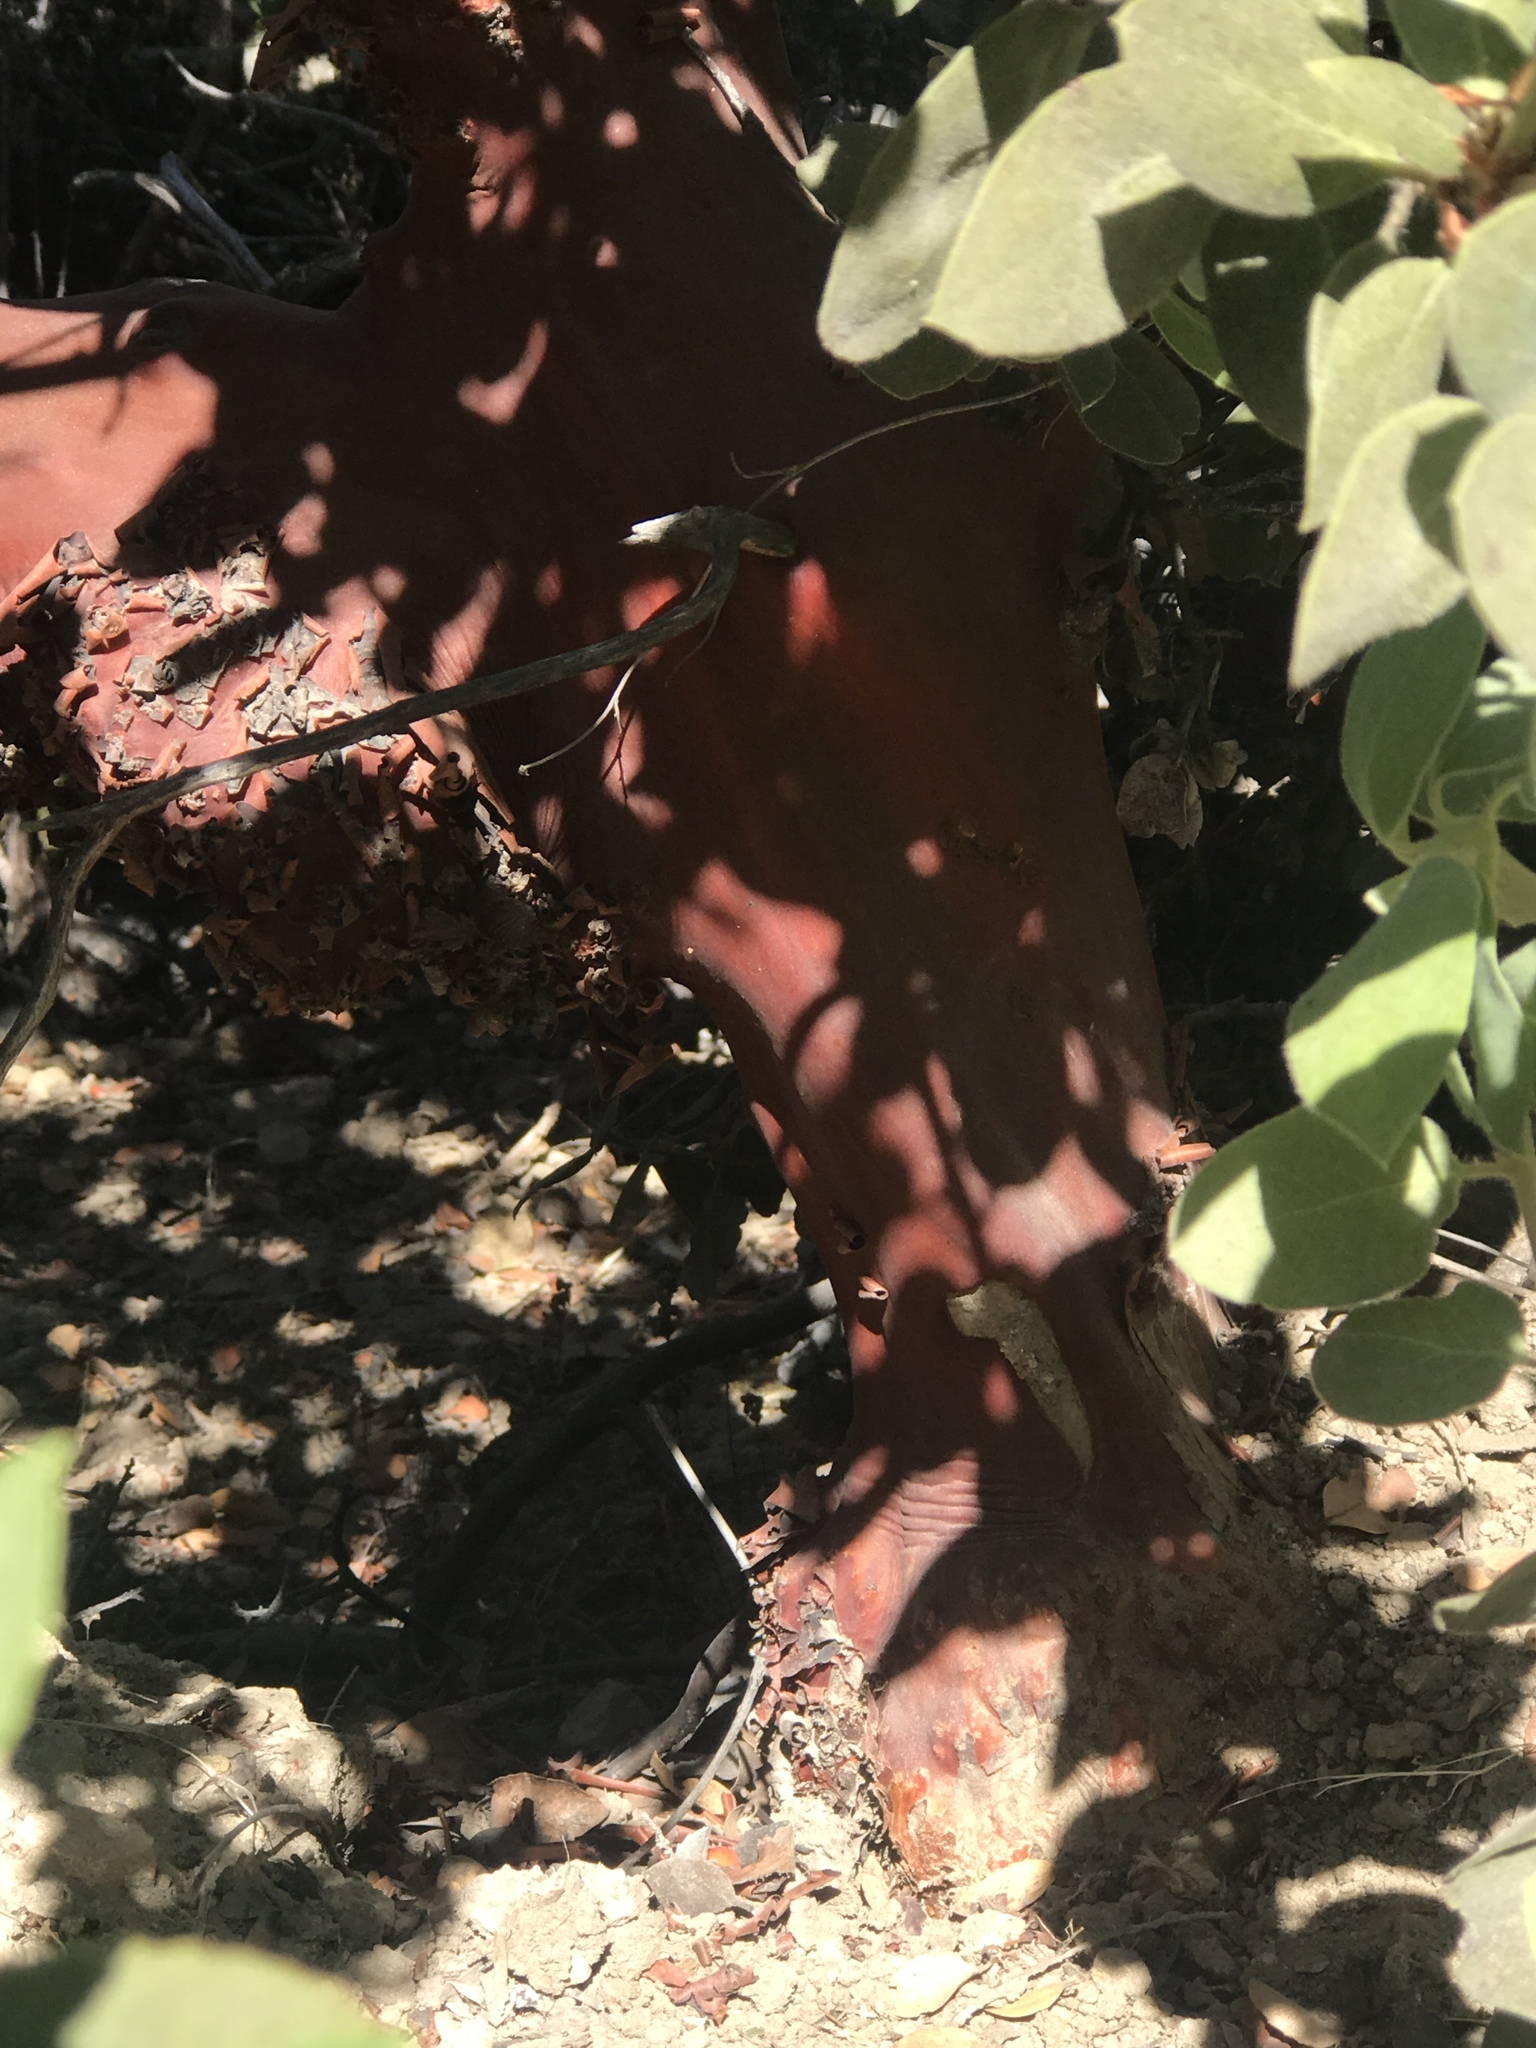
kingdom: Plantae
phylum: Tracheophyta
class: Magnoliopsida
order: Ericales
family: Ericaceae
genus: Arctostaphylos
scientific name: Arctostaphylos crustacea
